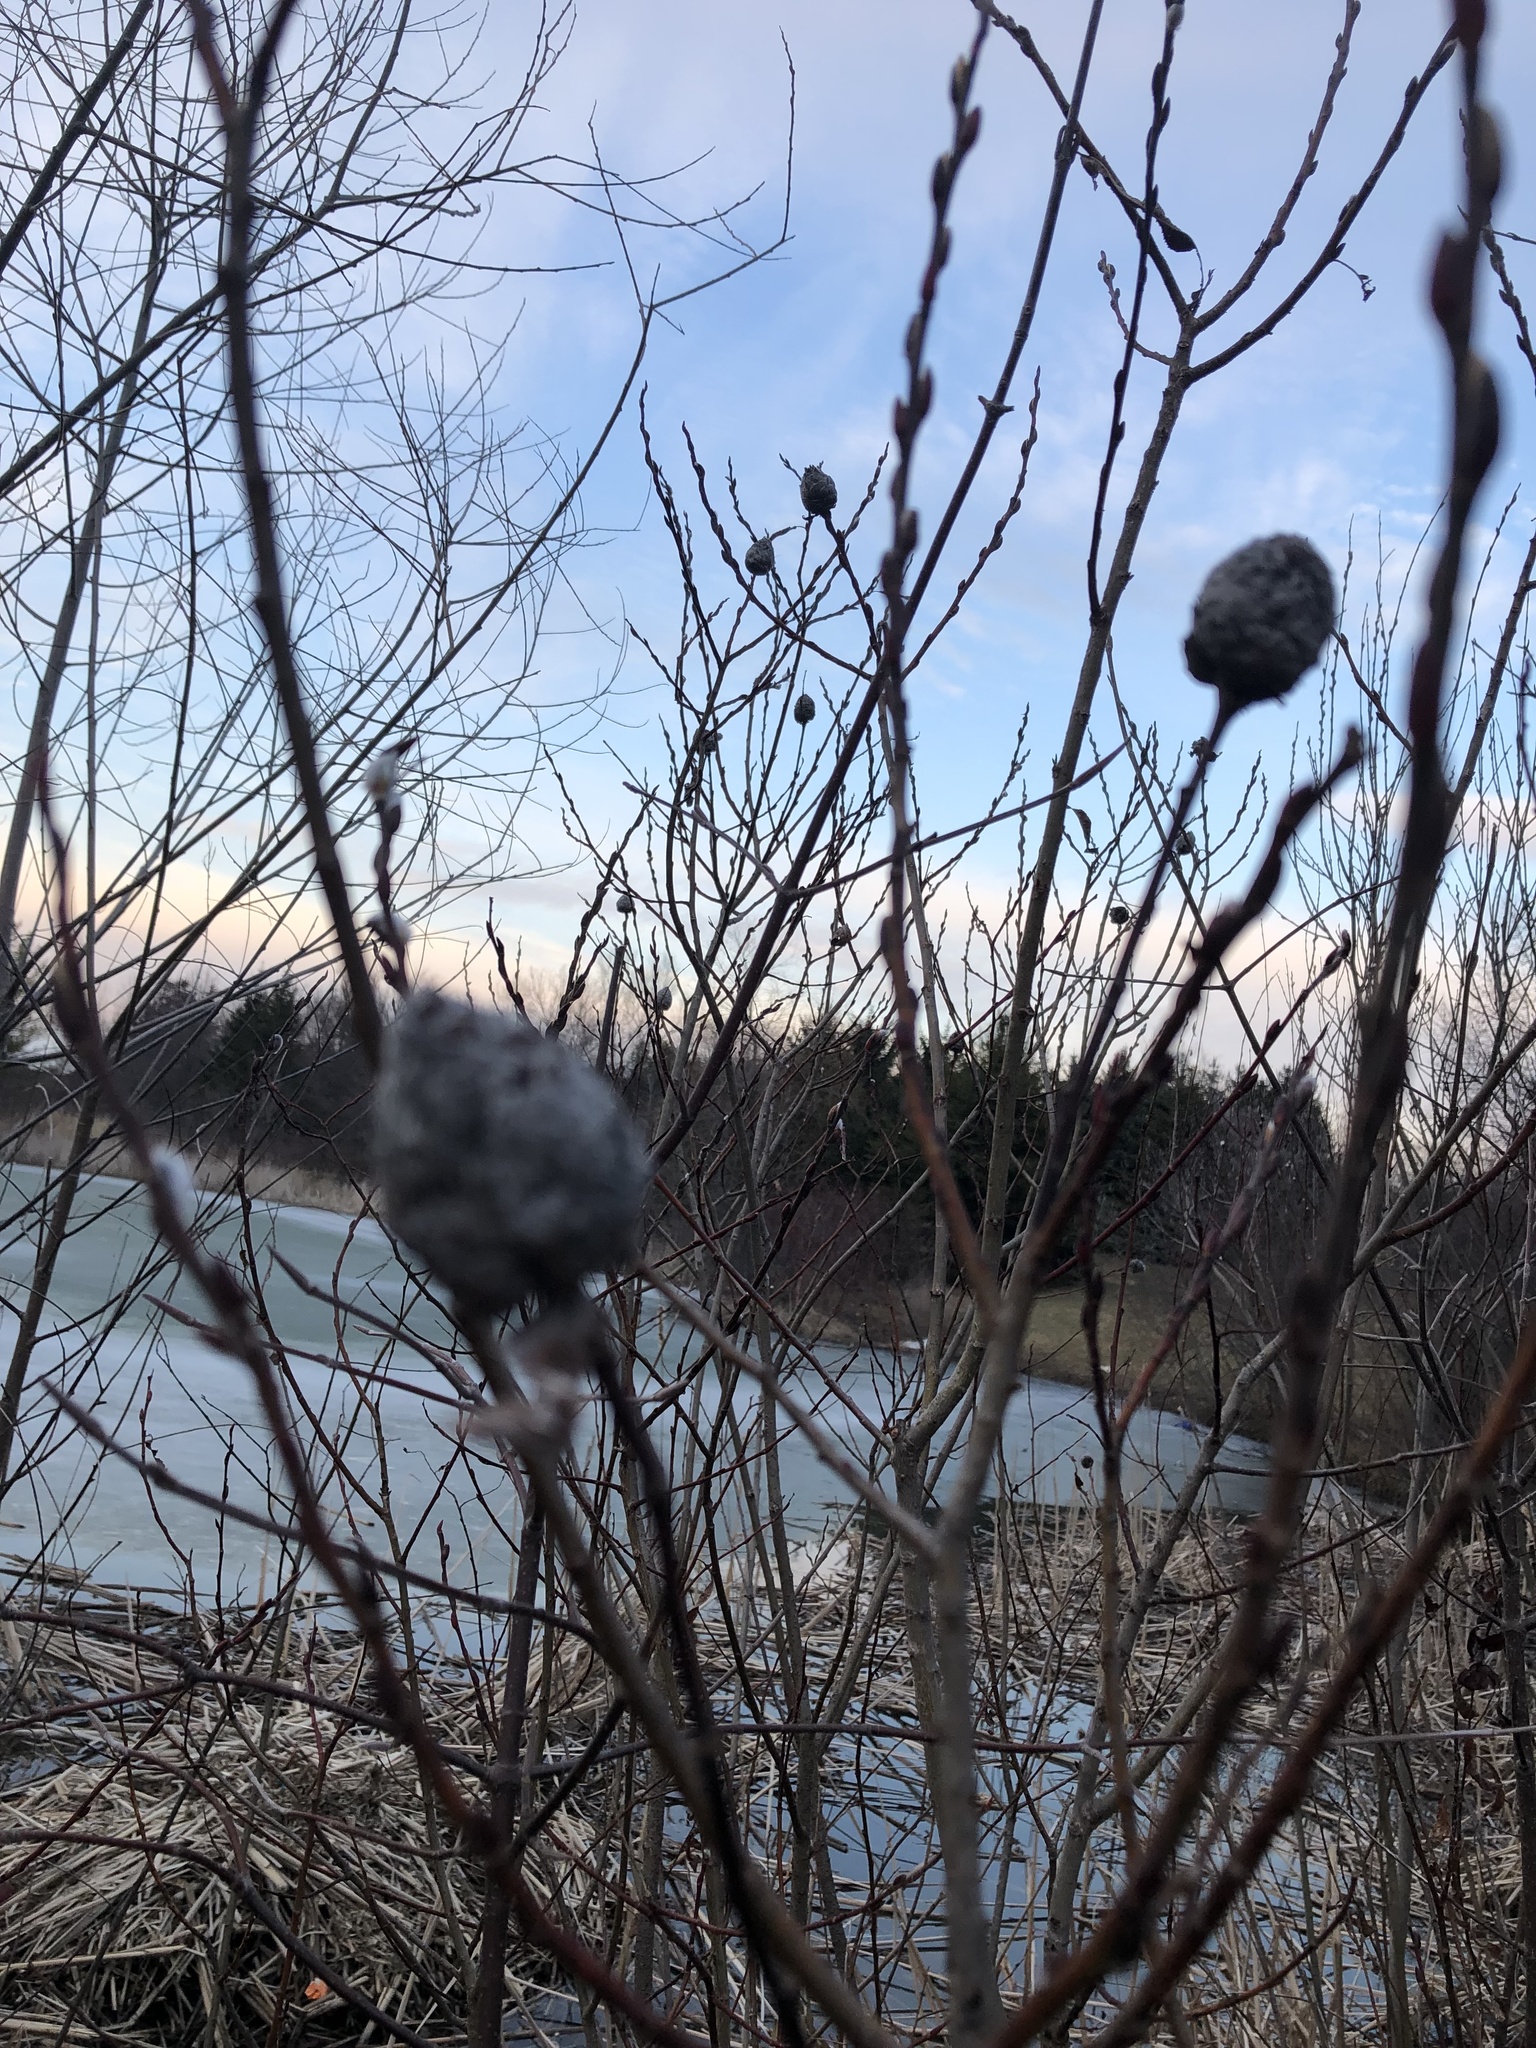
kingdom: Animalia
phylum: Arthropoda
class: Insecta
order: Diptera
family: Cecidomyiidae
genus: Rabdophaga
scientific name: Rabdophaga strobiloides
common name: Willow pinecone gall midge
